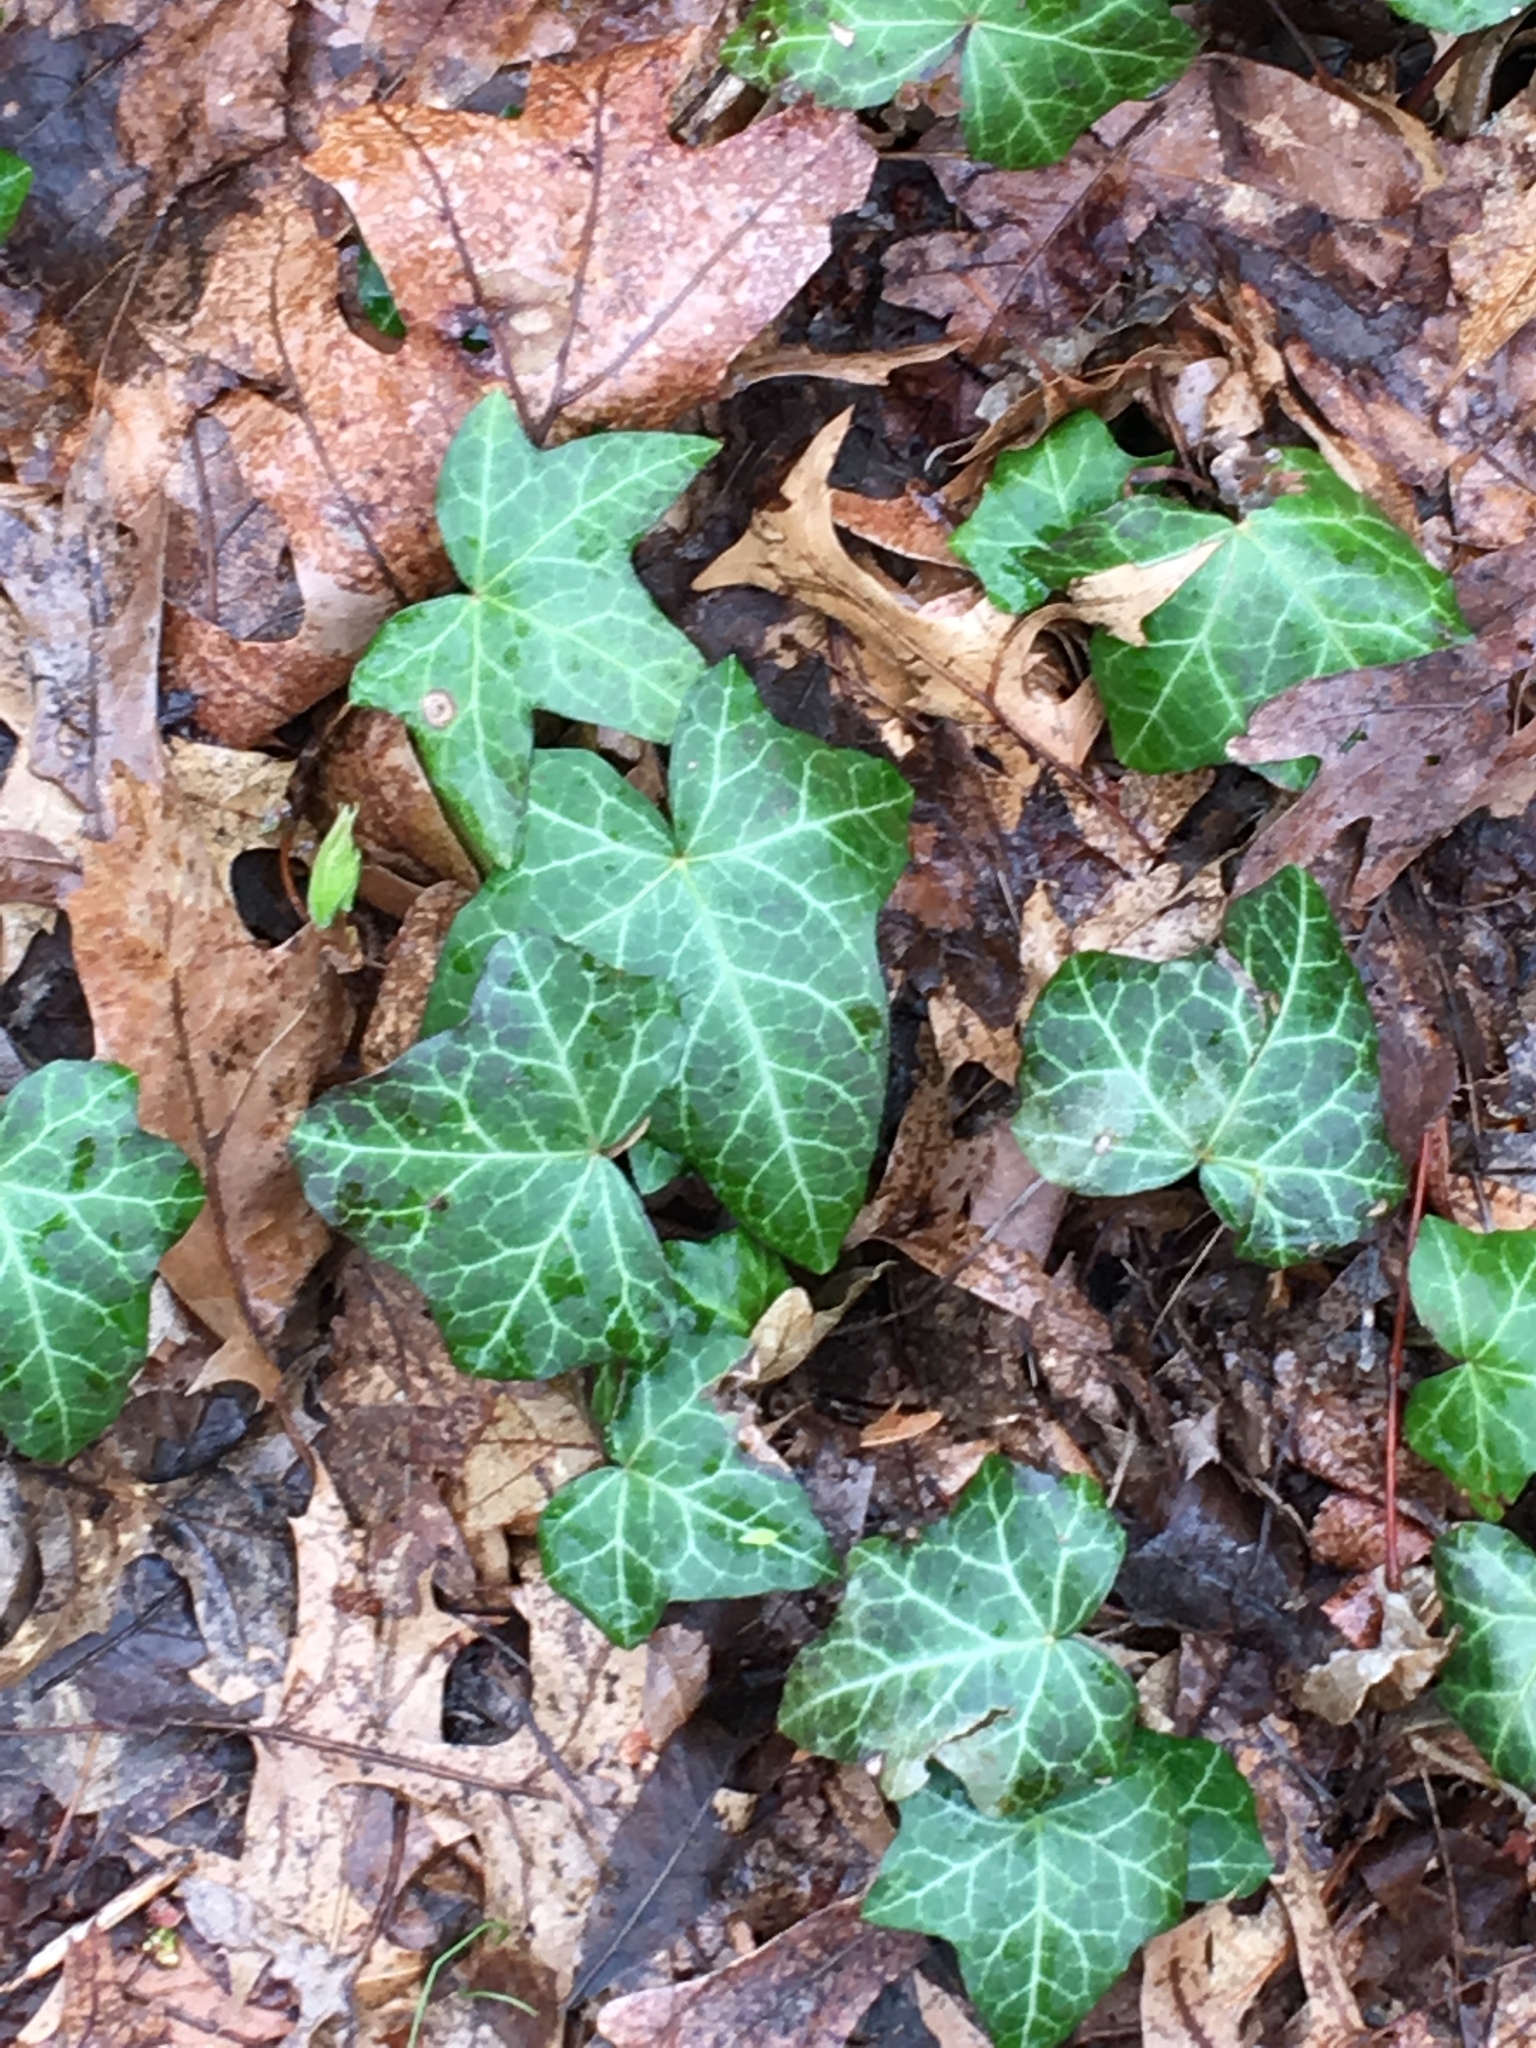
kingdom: Plantae
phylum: Tracheophyta
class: Magnoliopsida
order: Apiales
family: Araliaceae
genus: Hedera
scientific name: Hedera helix
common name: Ivy
